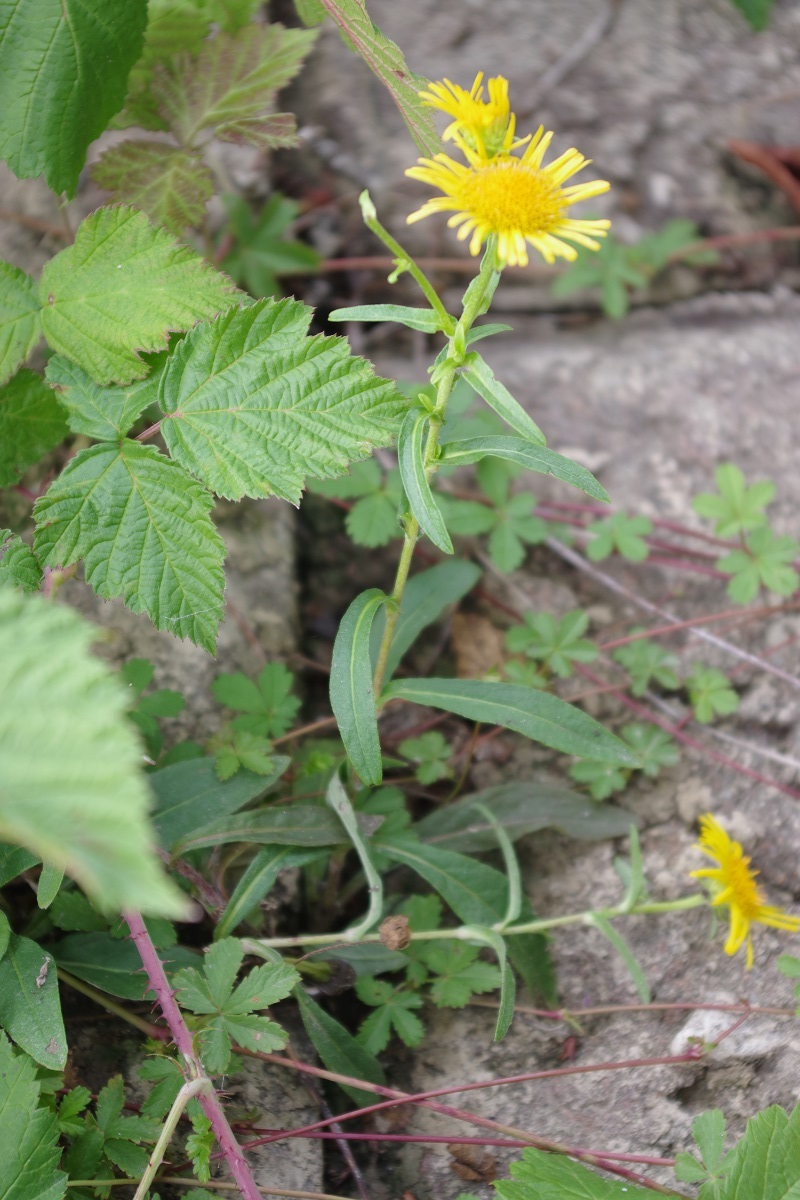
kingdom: Plantae
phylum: Tracheophyta
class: Magnoliopsida
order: Asterales
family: Asteraceae
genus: Pentanema
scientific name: Pentanema britannicum
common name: British elecampane
